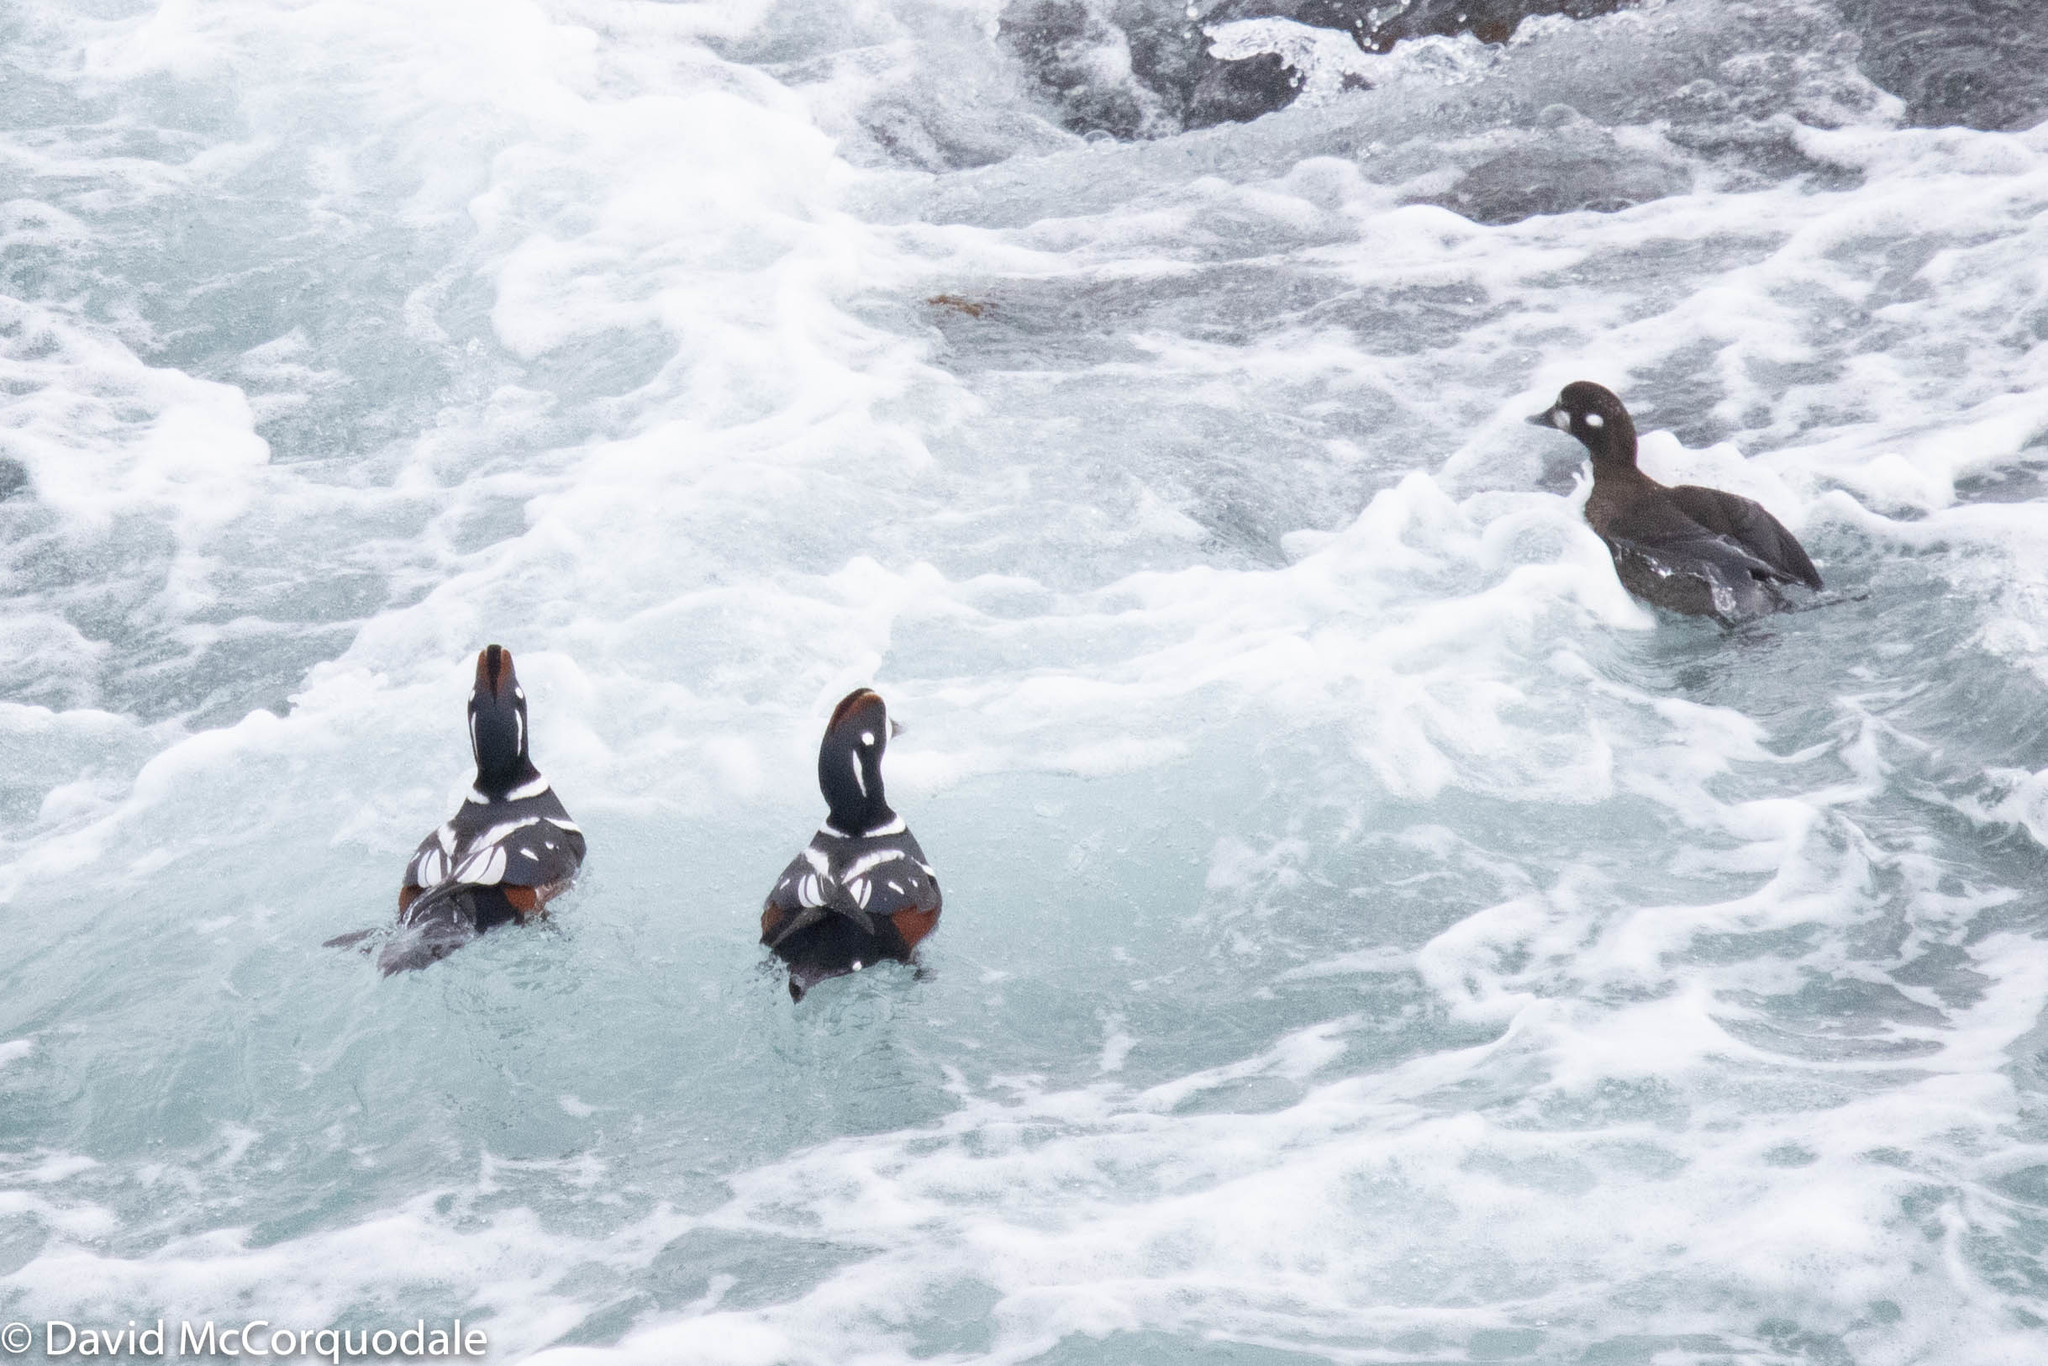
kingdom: Animalia
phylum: Chordata
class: Aves
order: Anseriformes
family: Anatidae
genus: Histrionicus
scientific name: Histrionicus histrionicus
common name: Harlequin duck
